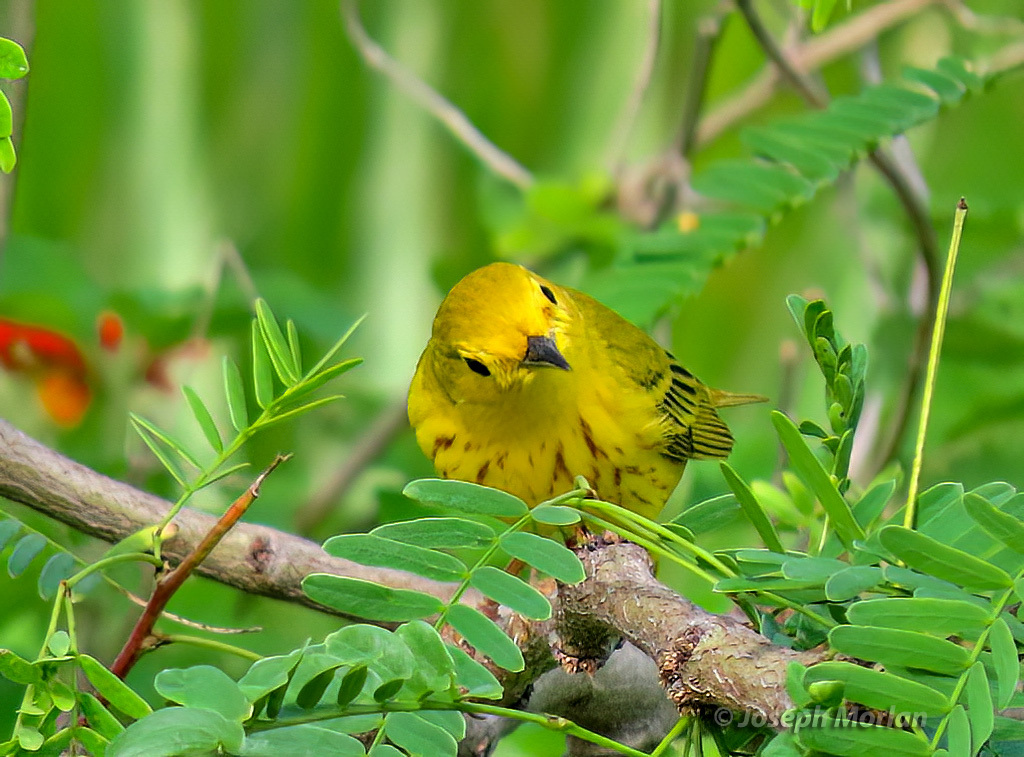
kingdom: Animalia
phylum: Chordata
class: Aves
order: Passeriformes
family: Parulidae
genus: Setophaga
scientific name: Setophaga petechia
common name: Yellow warbler
